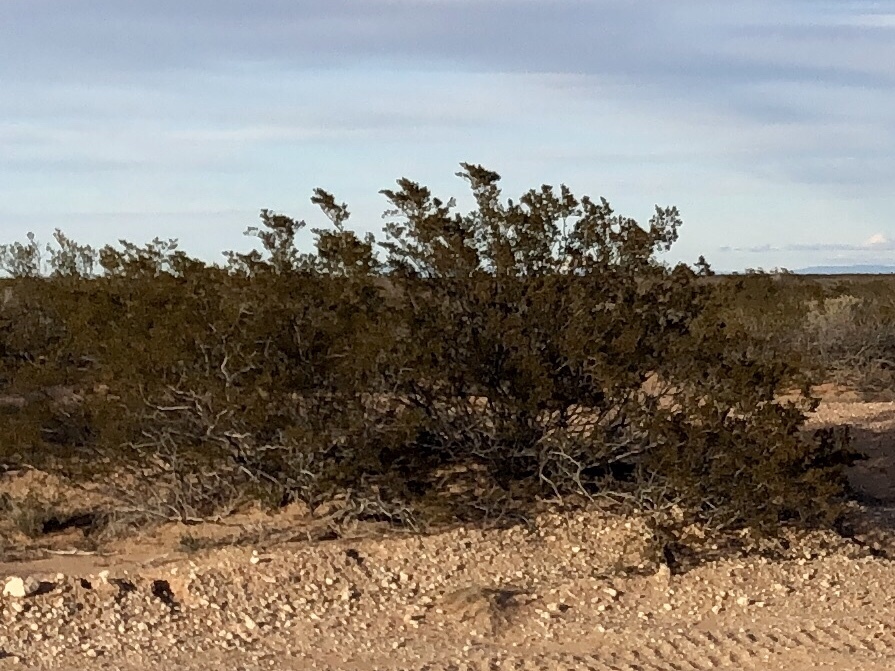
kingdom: Plantae
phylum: Tracheophyta
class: Magnoliopsida
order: Zygophyllales
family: Zygophyllaceae
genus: Larrea
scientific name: Larrea tridentata
